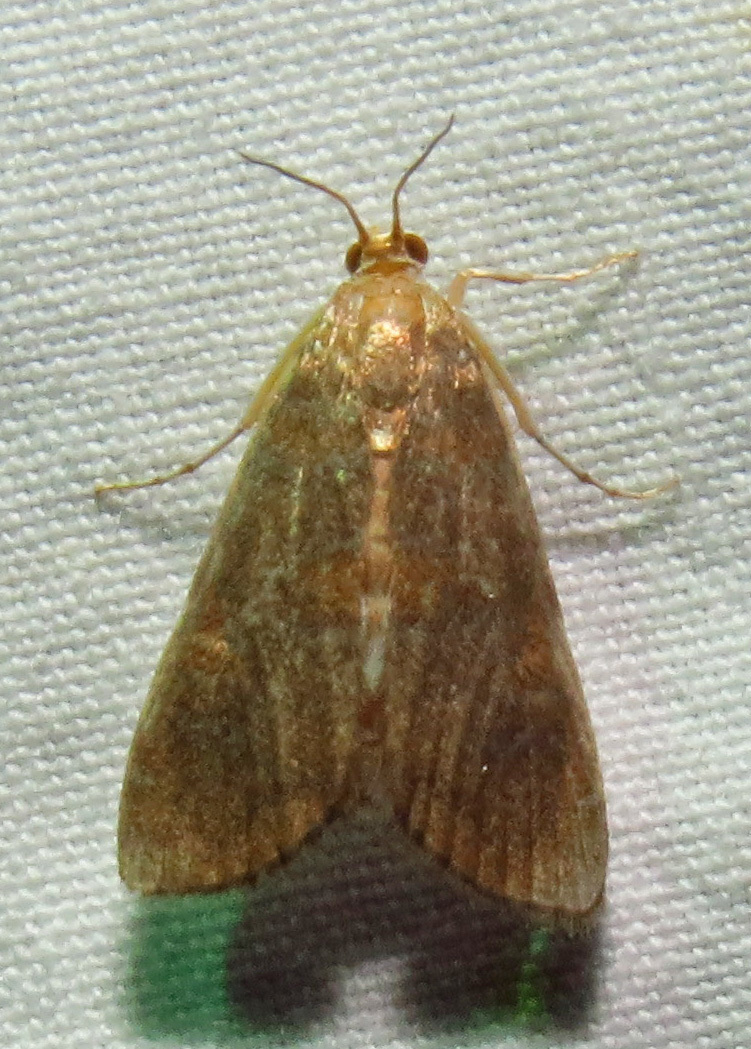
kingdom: Animalia
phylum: Arthropoda
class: Insecta
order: Lepidoptera
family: Crambidae
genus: Elophila
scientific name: Elophila gyralis
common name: Waterlily borer moth
